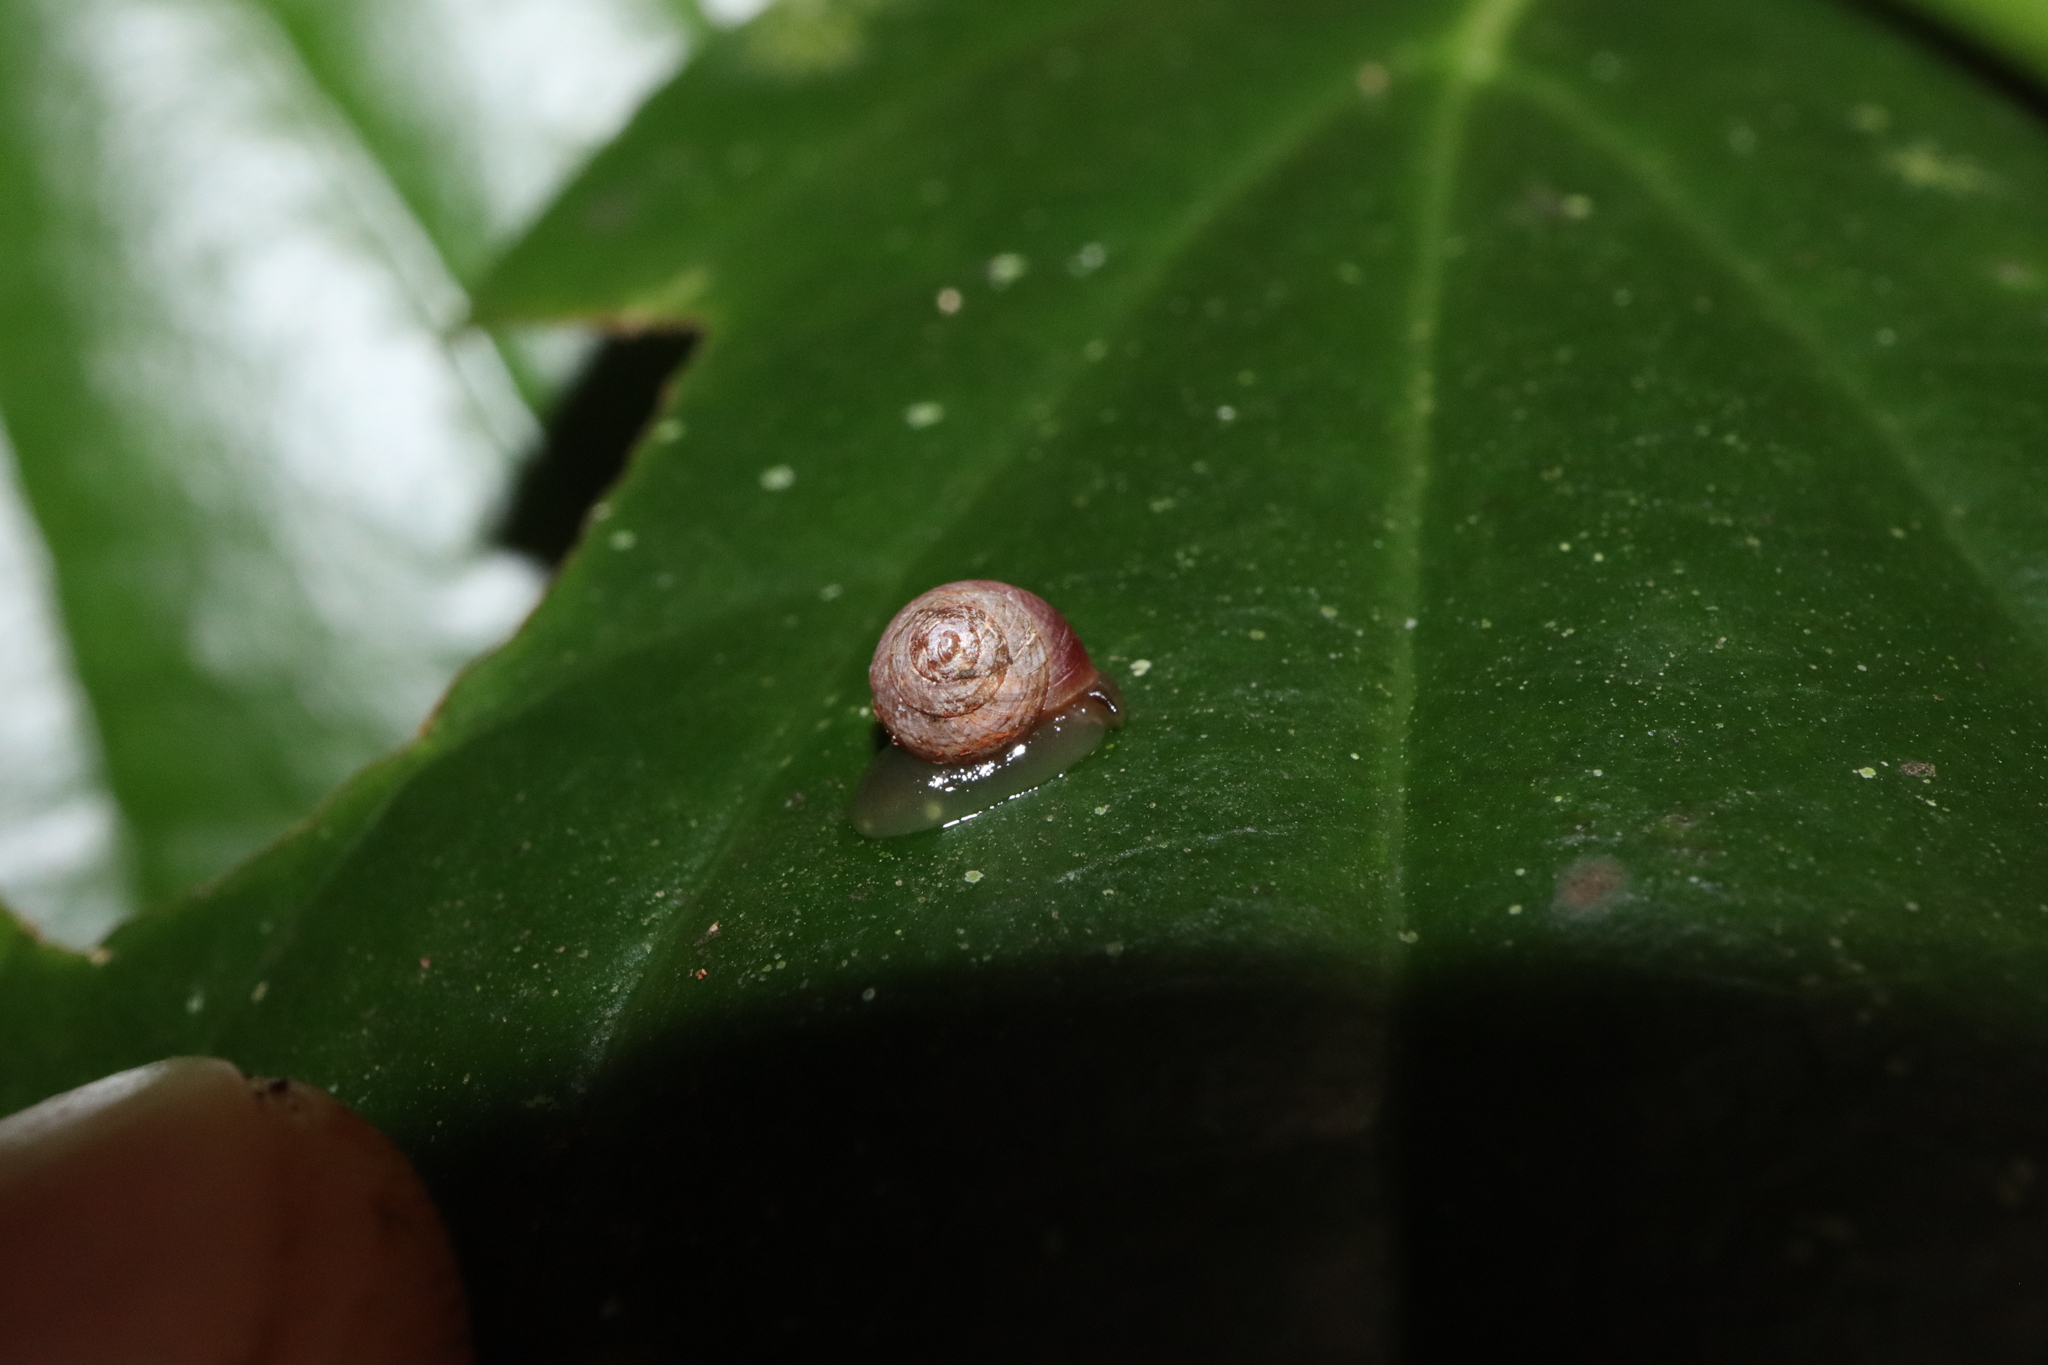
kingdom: Animalia
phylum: Mollusca
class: Gastropoda
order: Cycloneritida
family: Helicinidae
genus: Pleuropoma
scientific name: Pleuropoma macleayi
